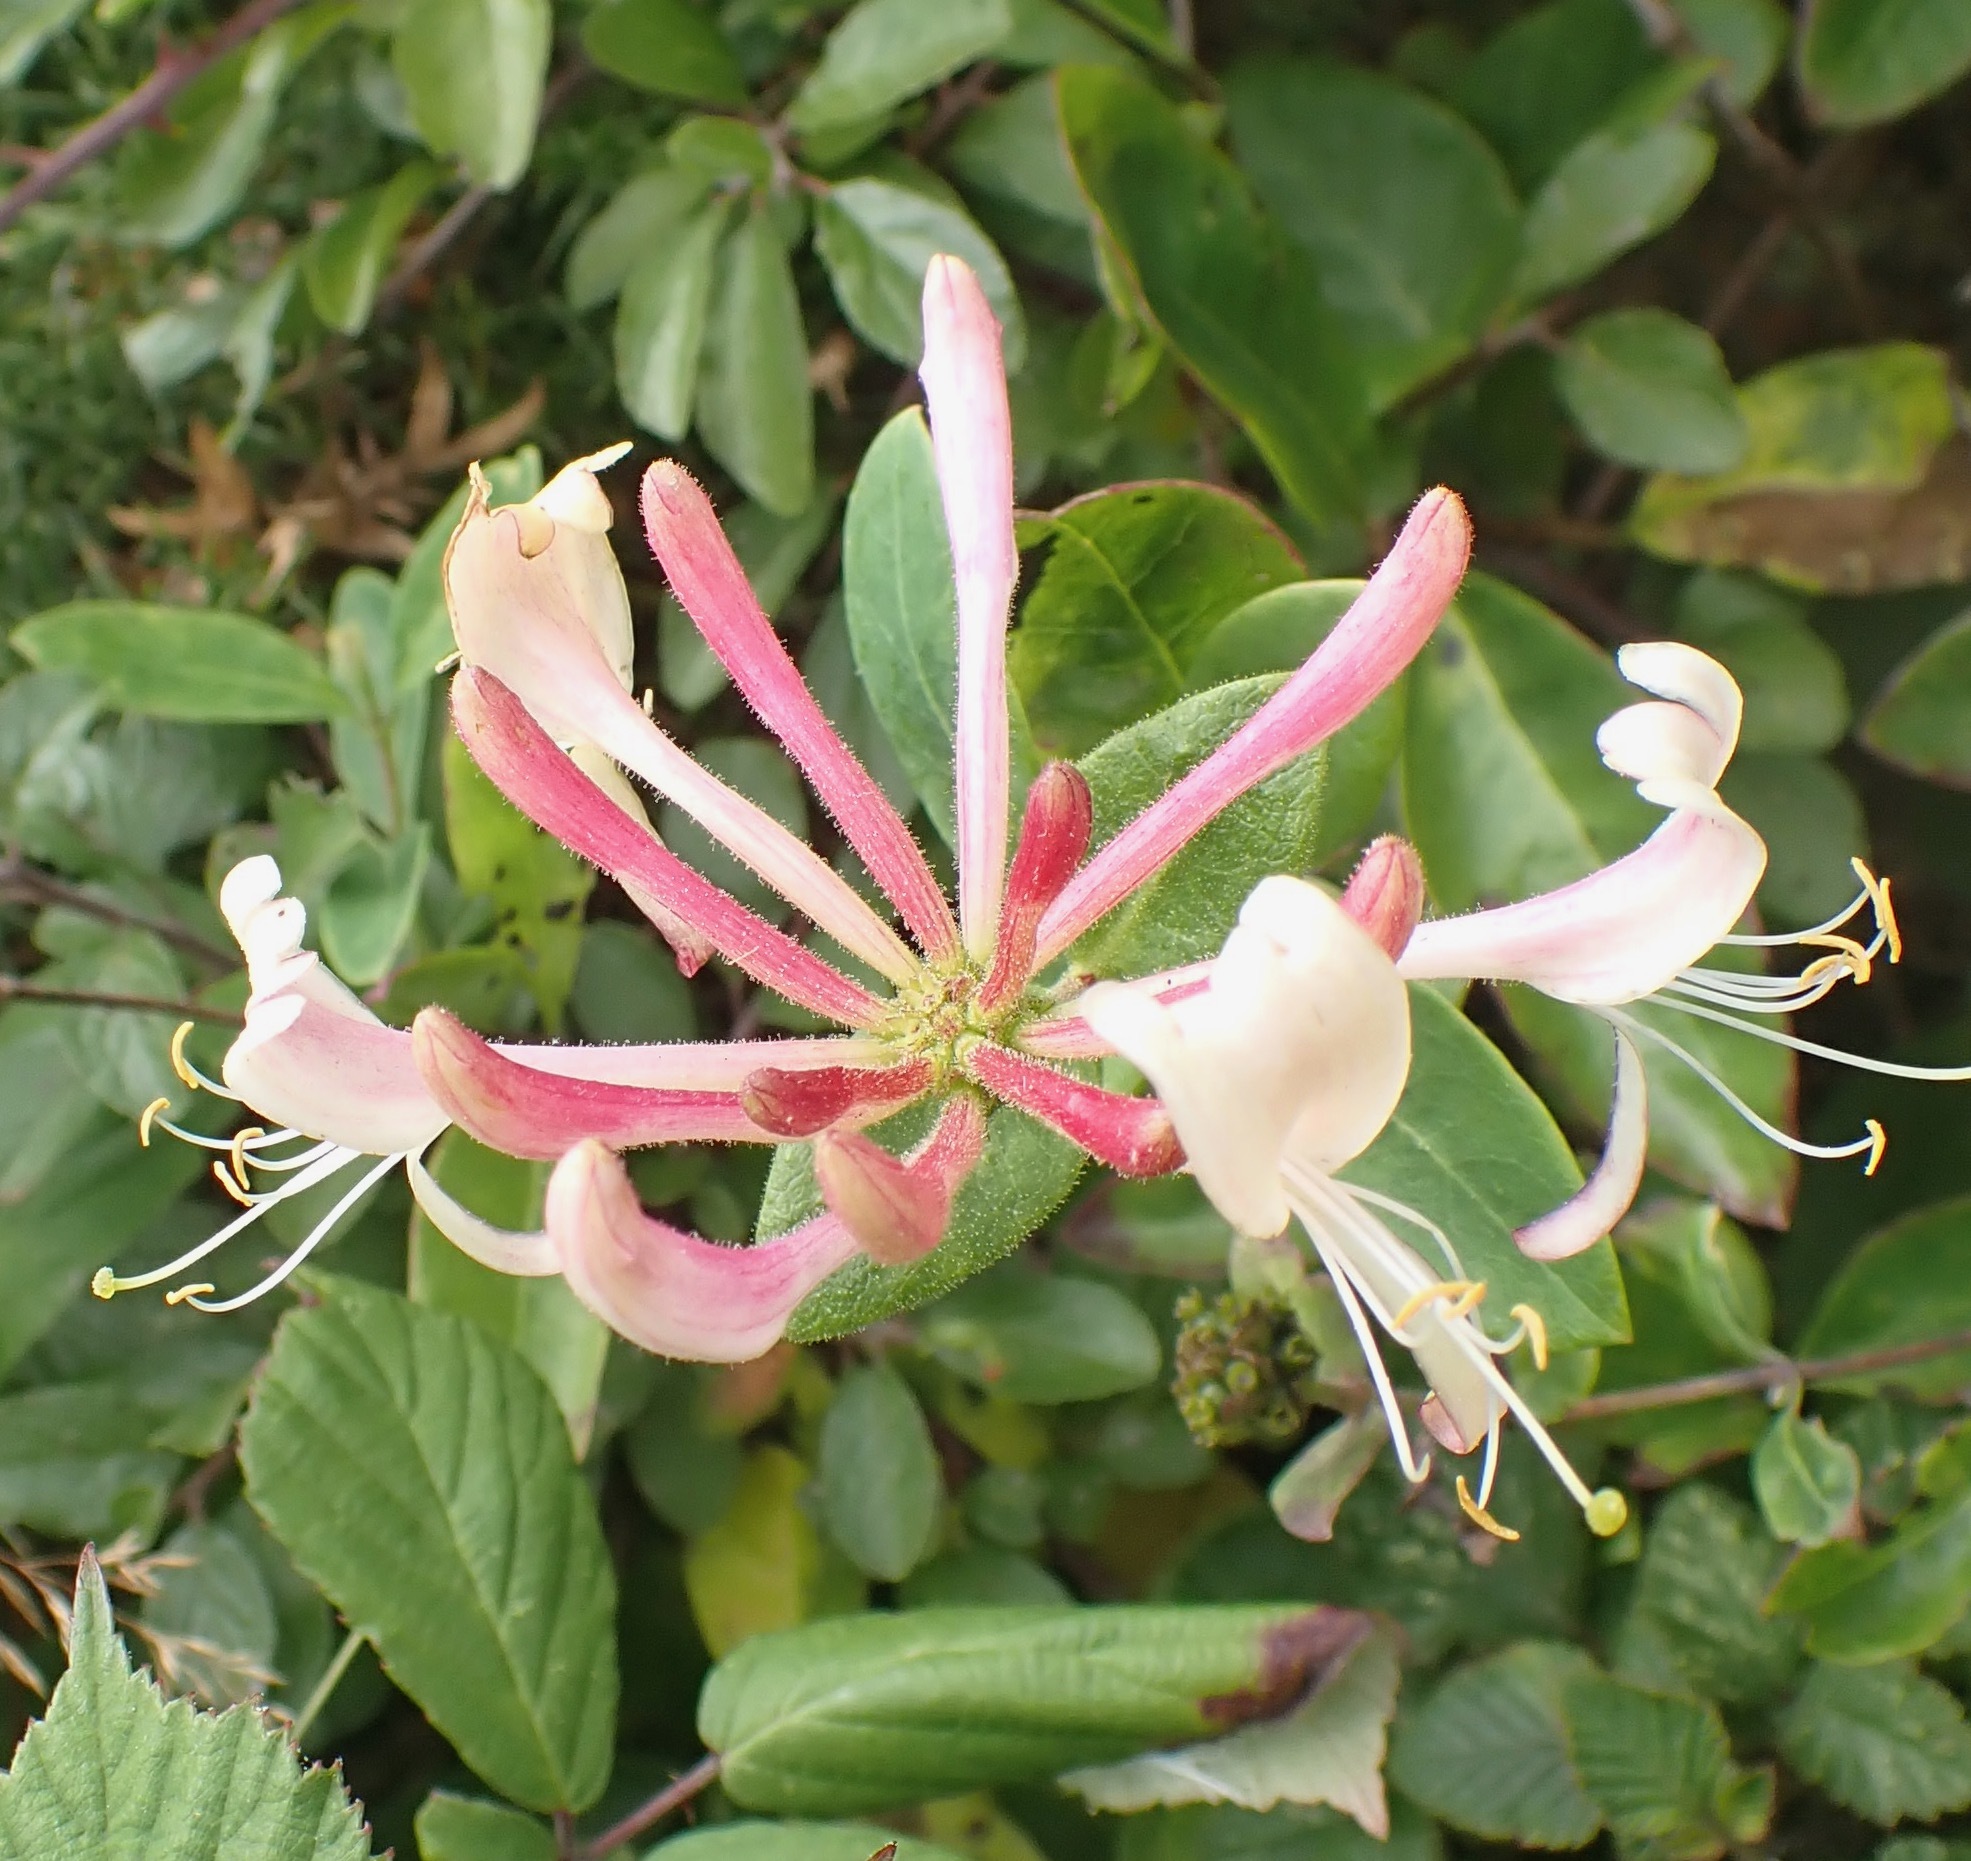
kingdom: Plantae
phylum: Tracheophyta
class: Magnoliopsida
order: Dipsacales
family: Caprifoliaceae
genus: Lonicera
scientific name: Lonicera periclymenum
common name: European honeysuckle
